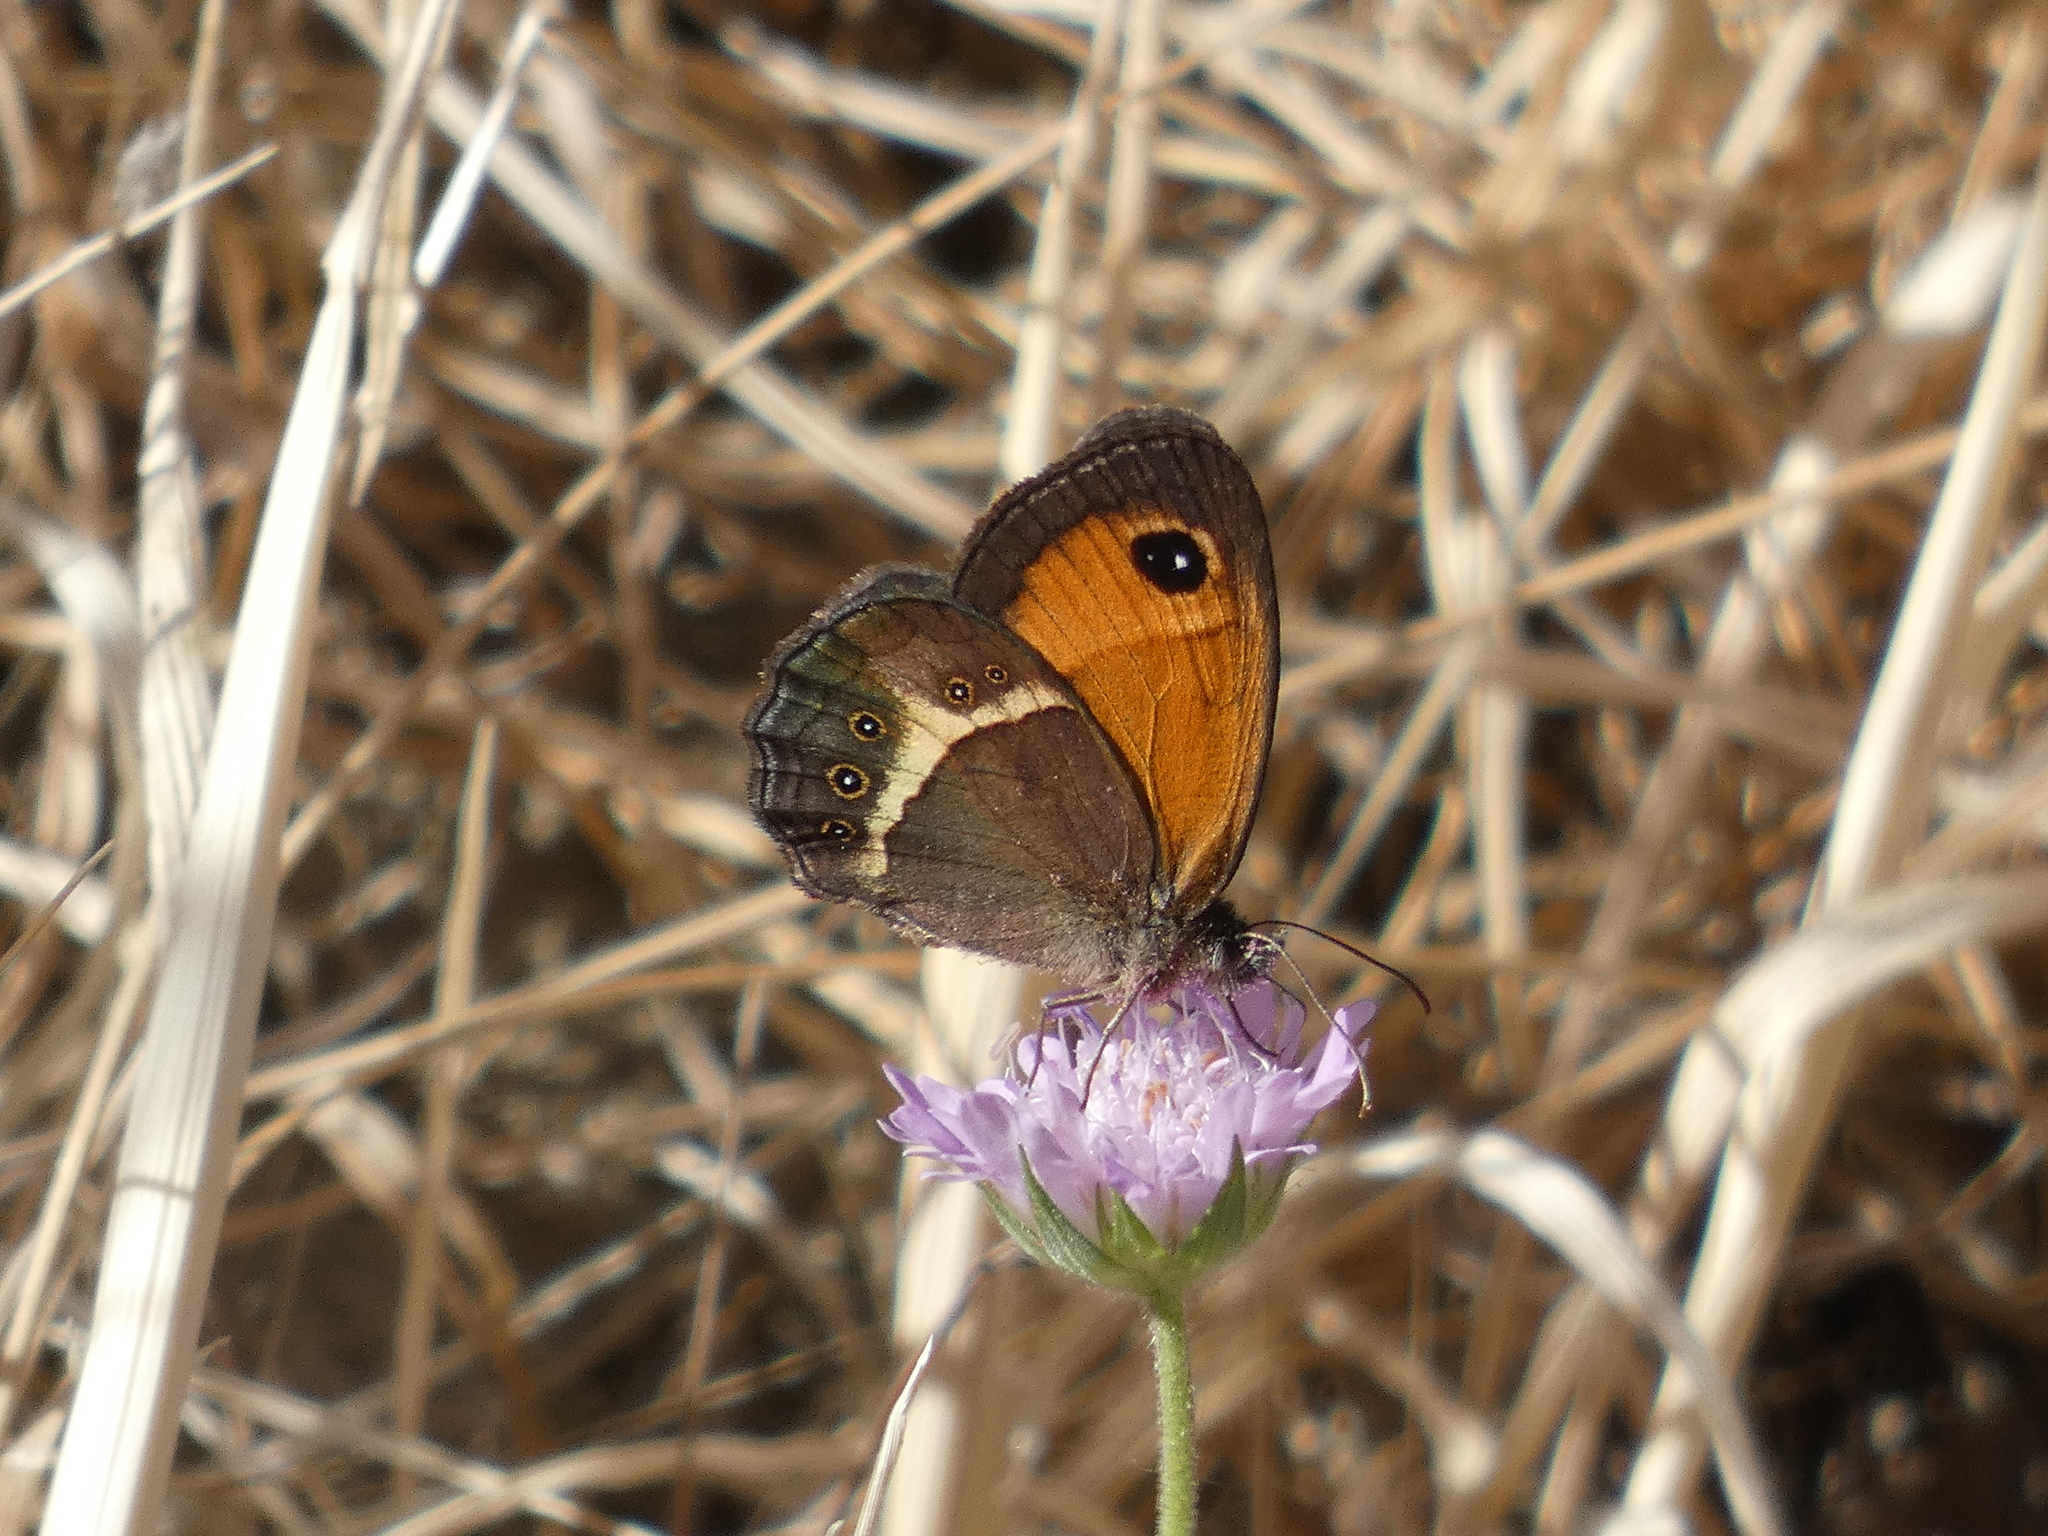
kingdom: Animalia
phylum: Arthropoda
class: Insecta
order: Lepidoptera
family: Nymphalidae
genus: Pyronia
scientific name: Pyronia bathseba
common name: Spanish gatekeeper
